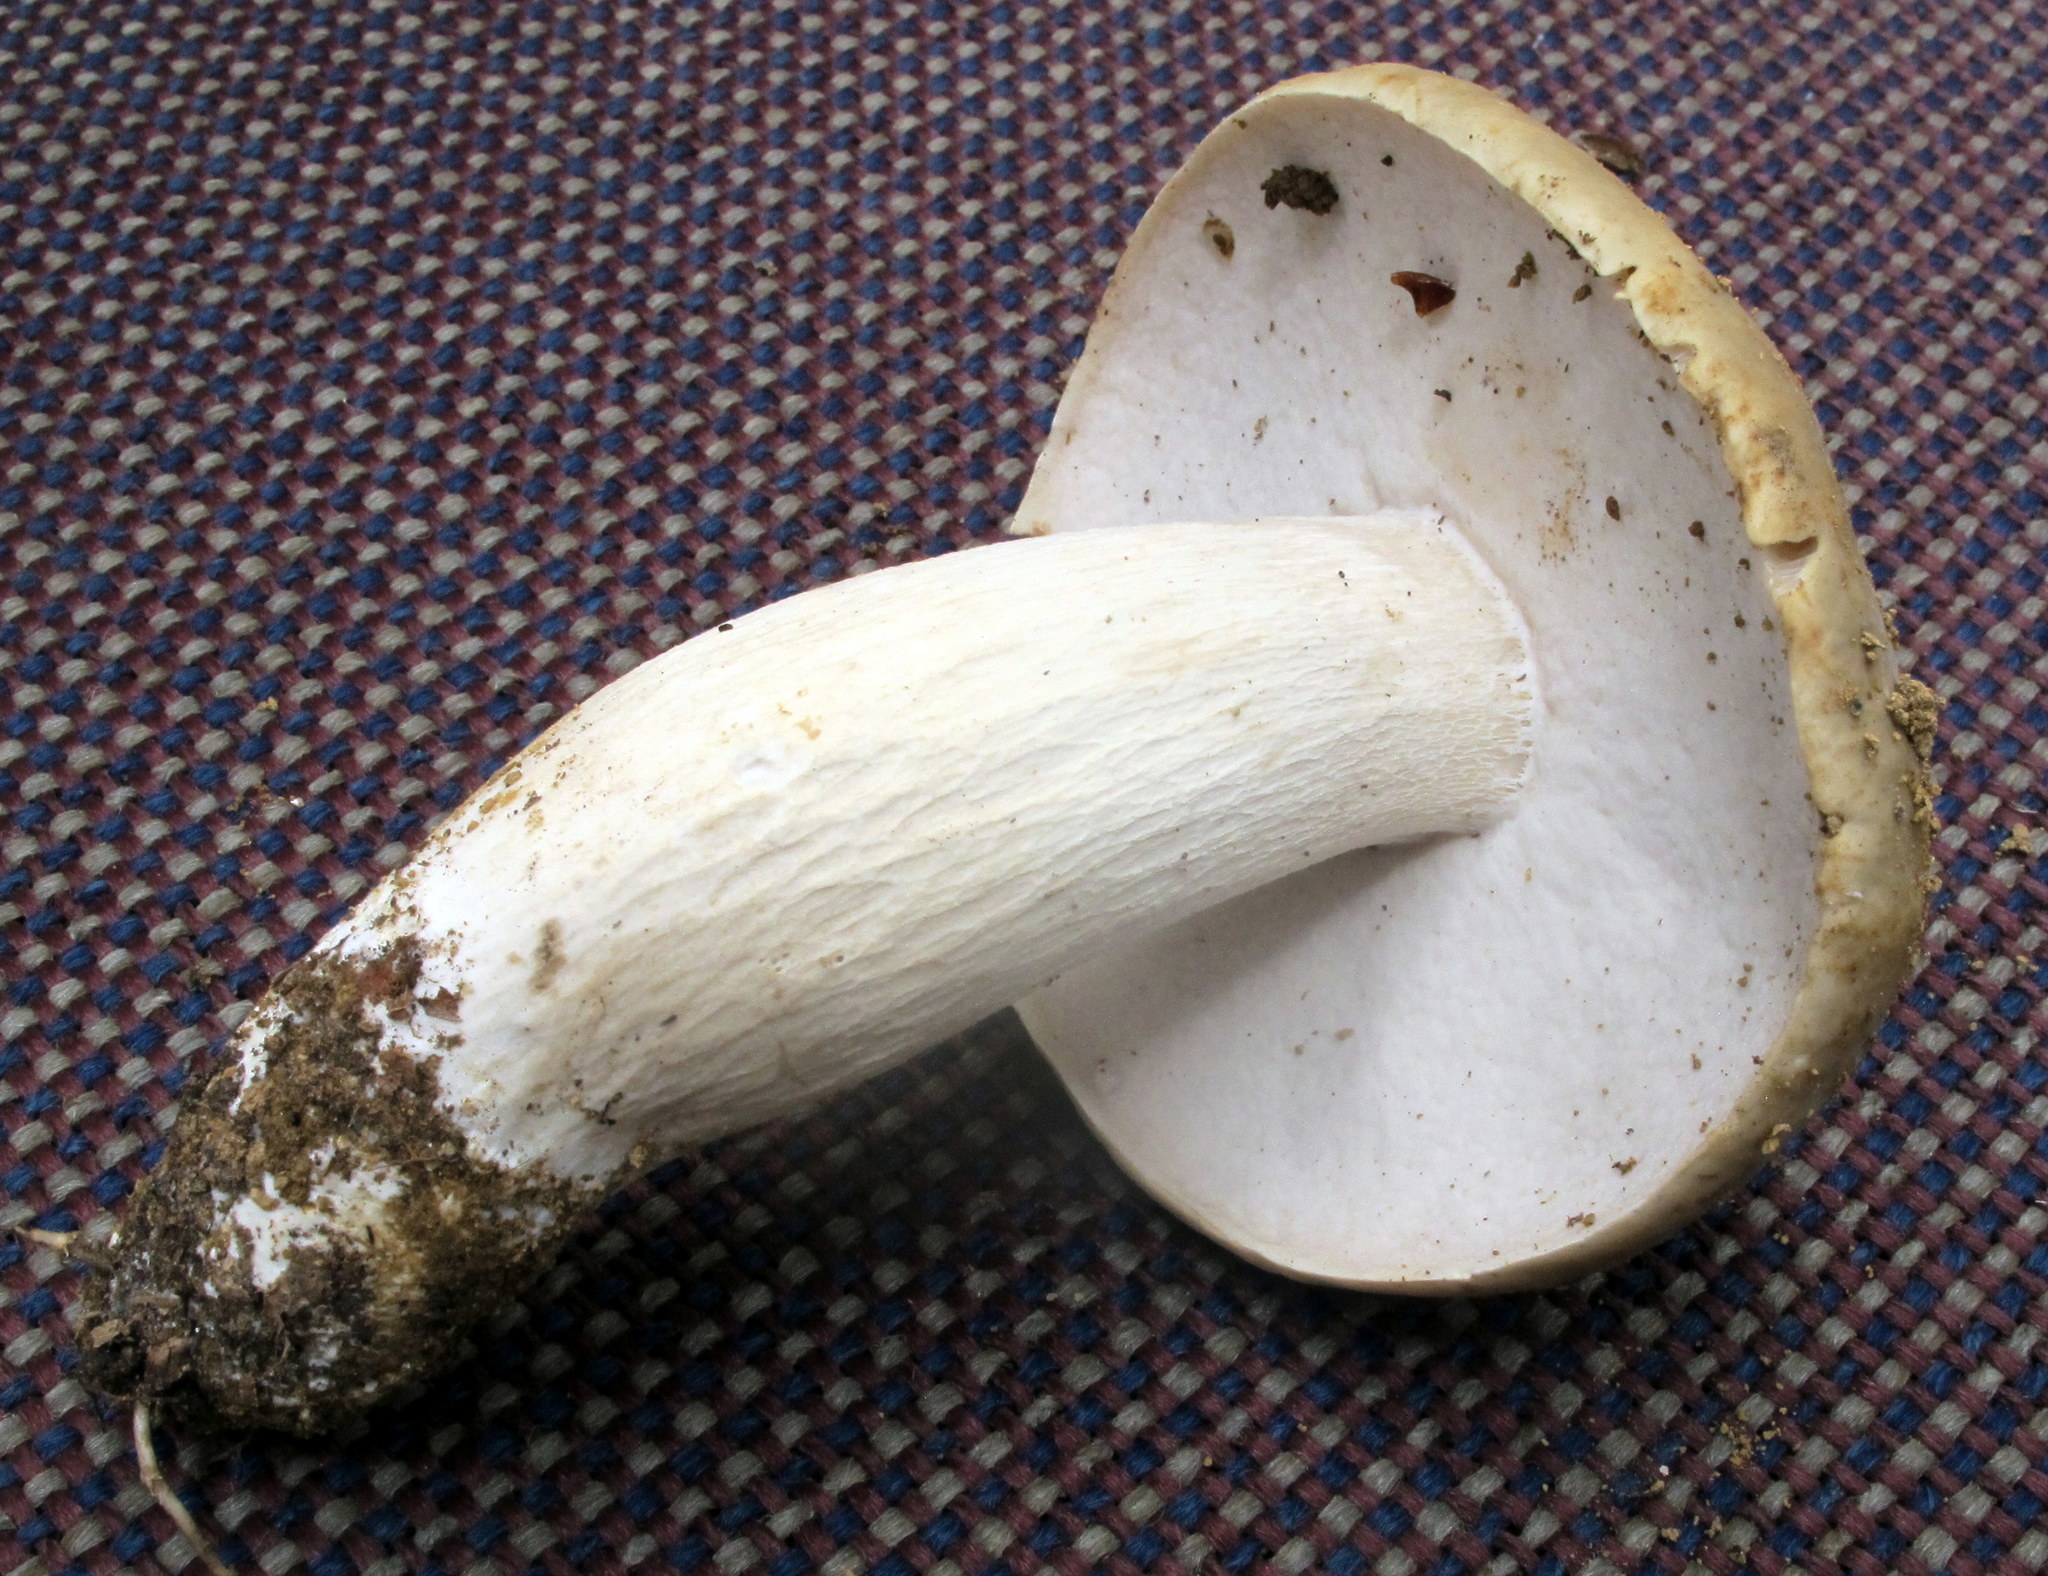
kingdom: Fungi
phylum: Basidiomycota
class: Agaricomycetes
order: Boletales
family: Boletaceae
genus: Boletus
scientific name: Boletus nobilis
